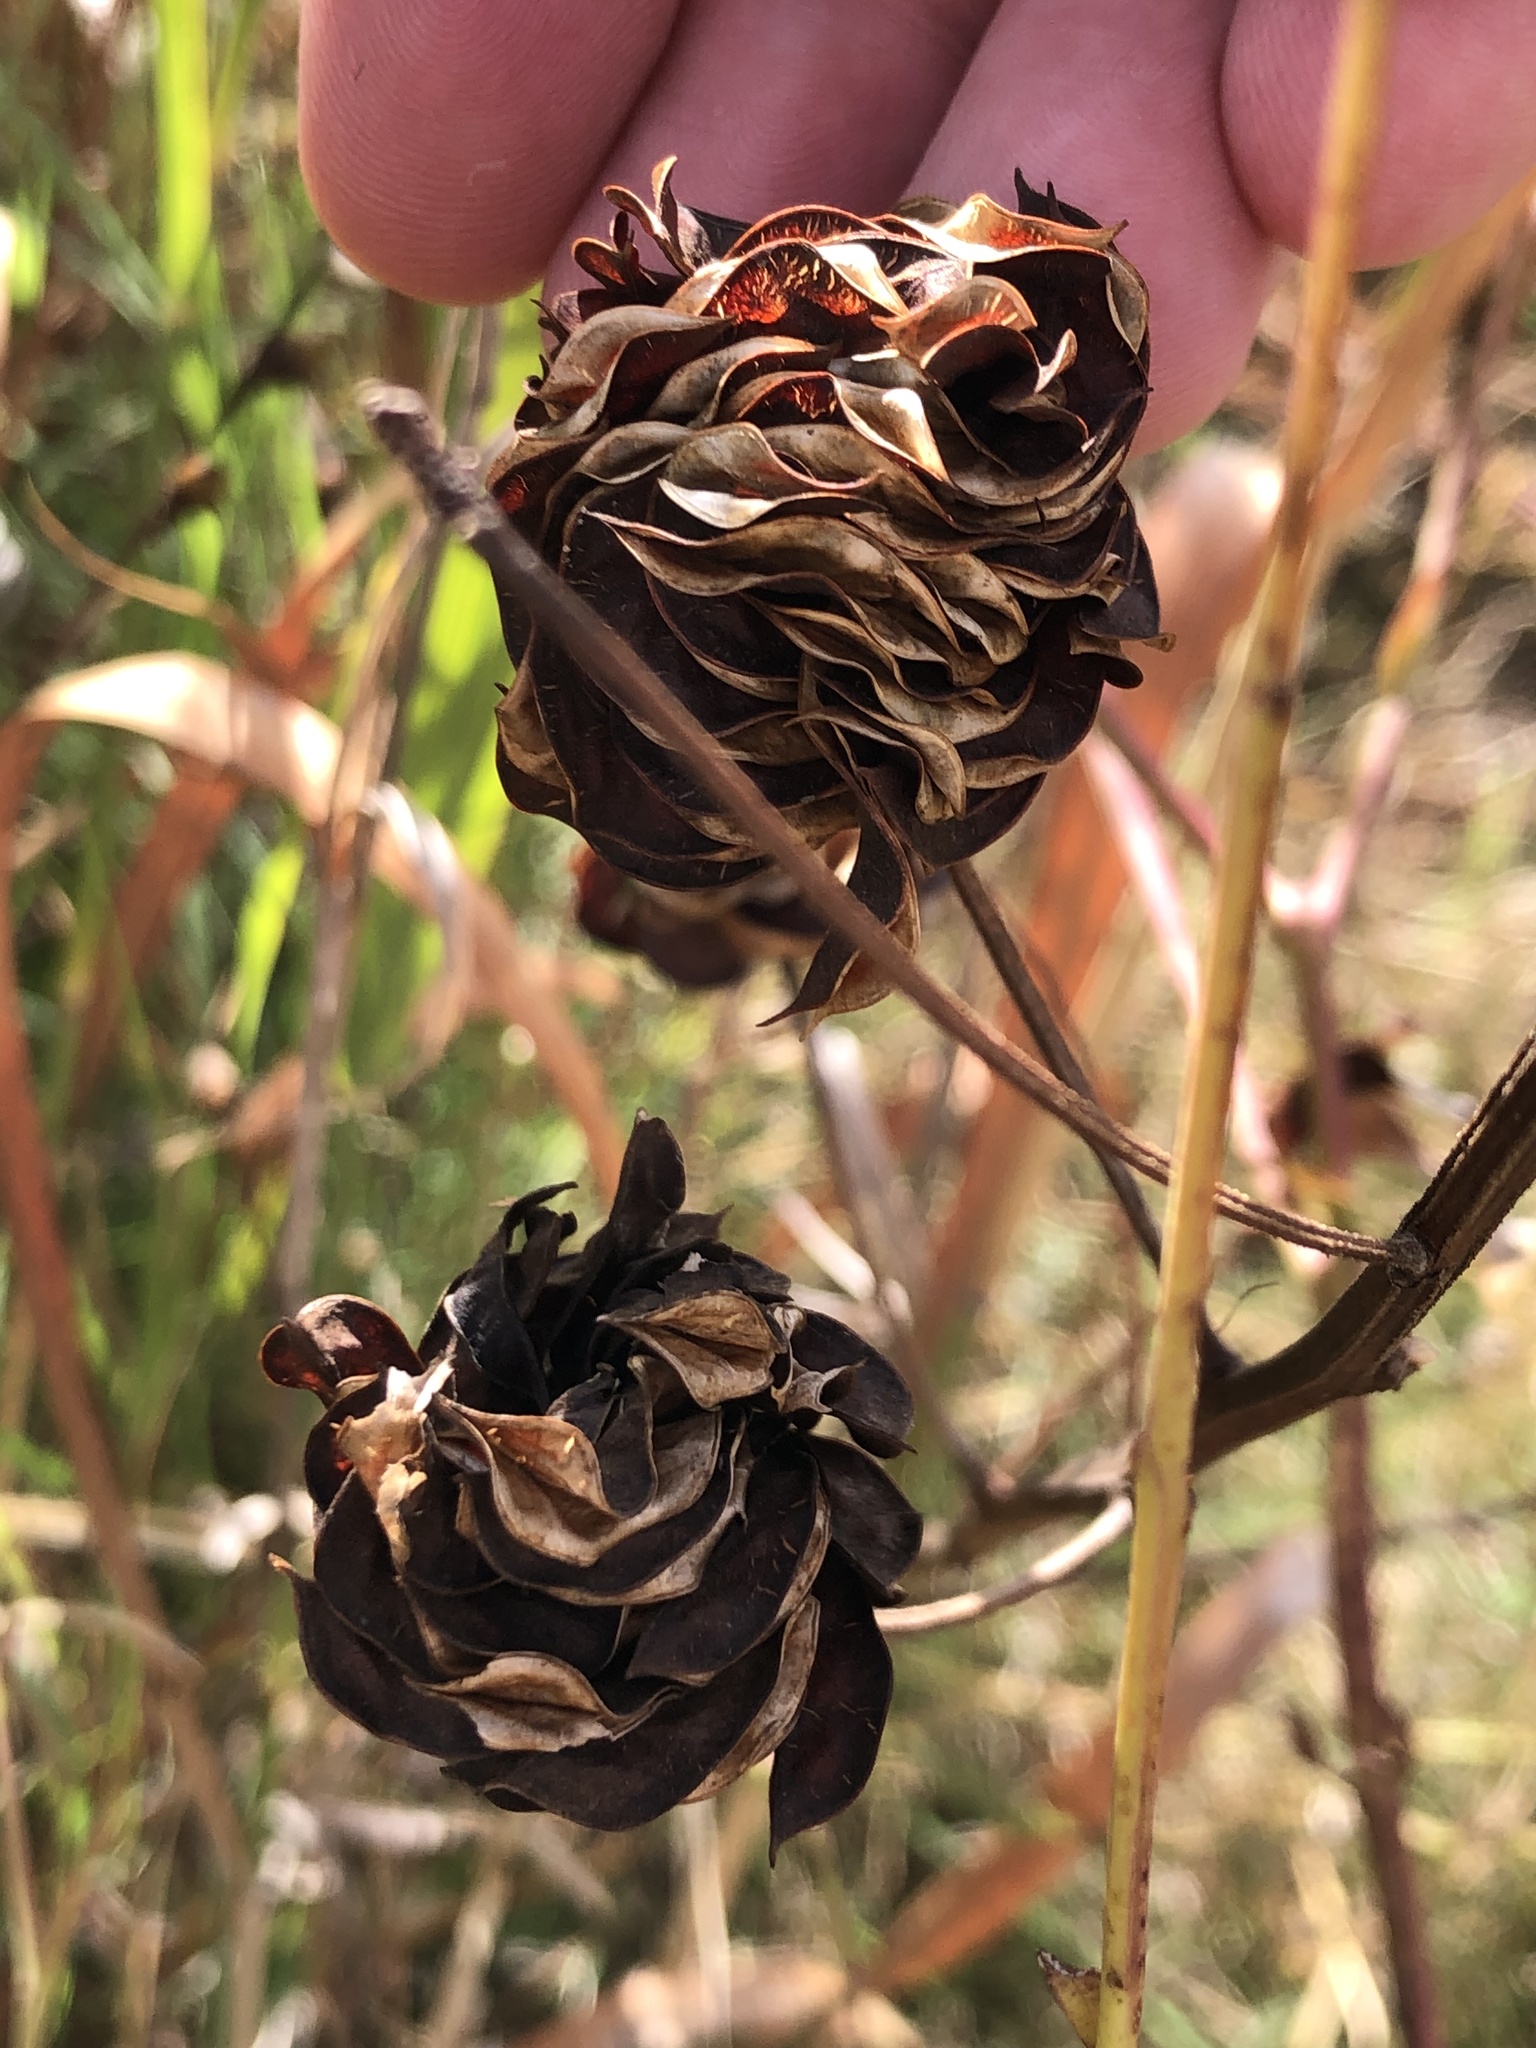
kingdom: Plantae
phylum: Tracheophyta
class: Magnoliopsida
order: Fabales
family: Fabaceae
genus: Desmanthus
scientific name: Desmanthus illinoensis
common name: Illinois bundle-flower
